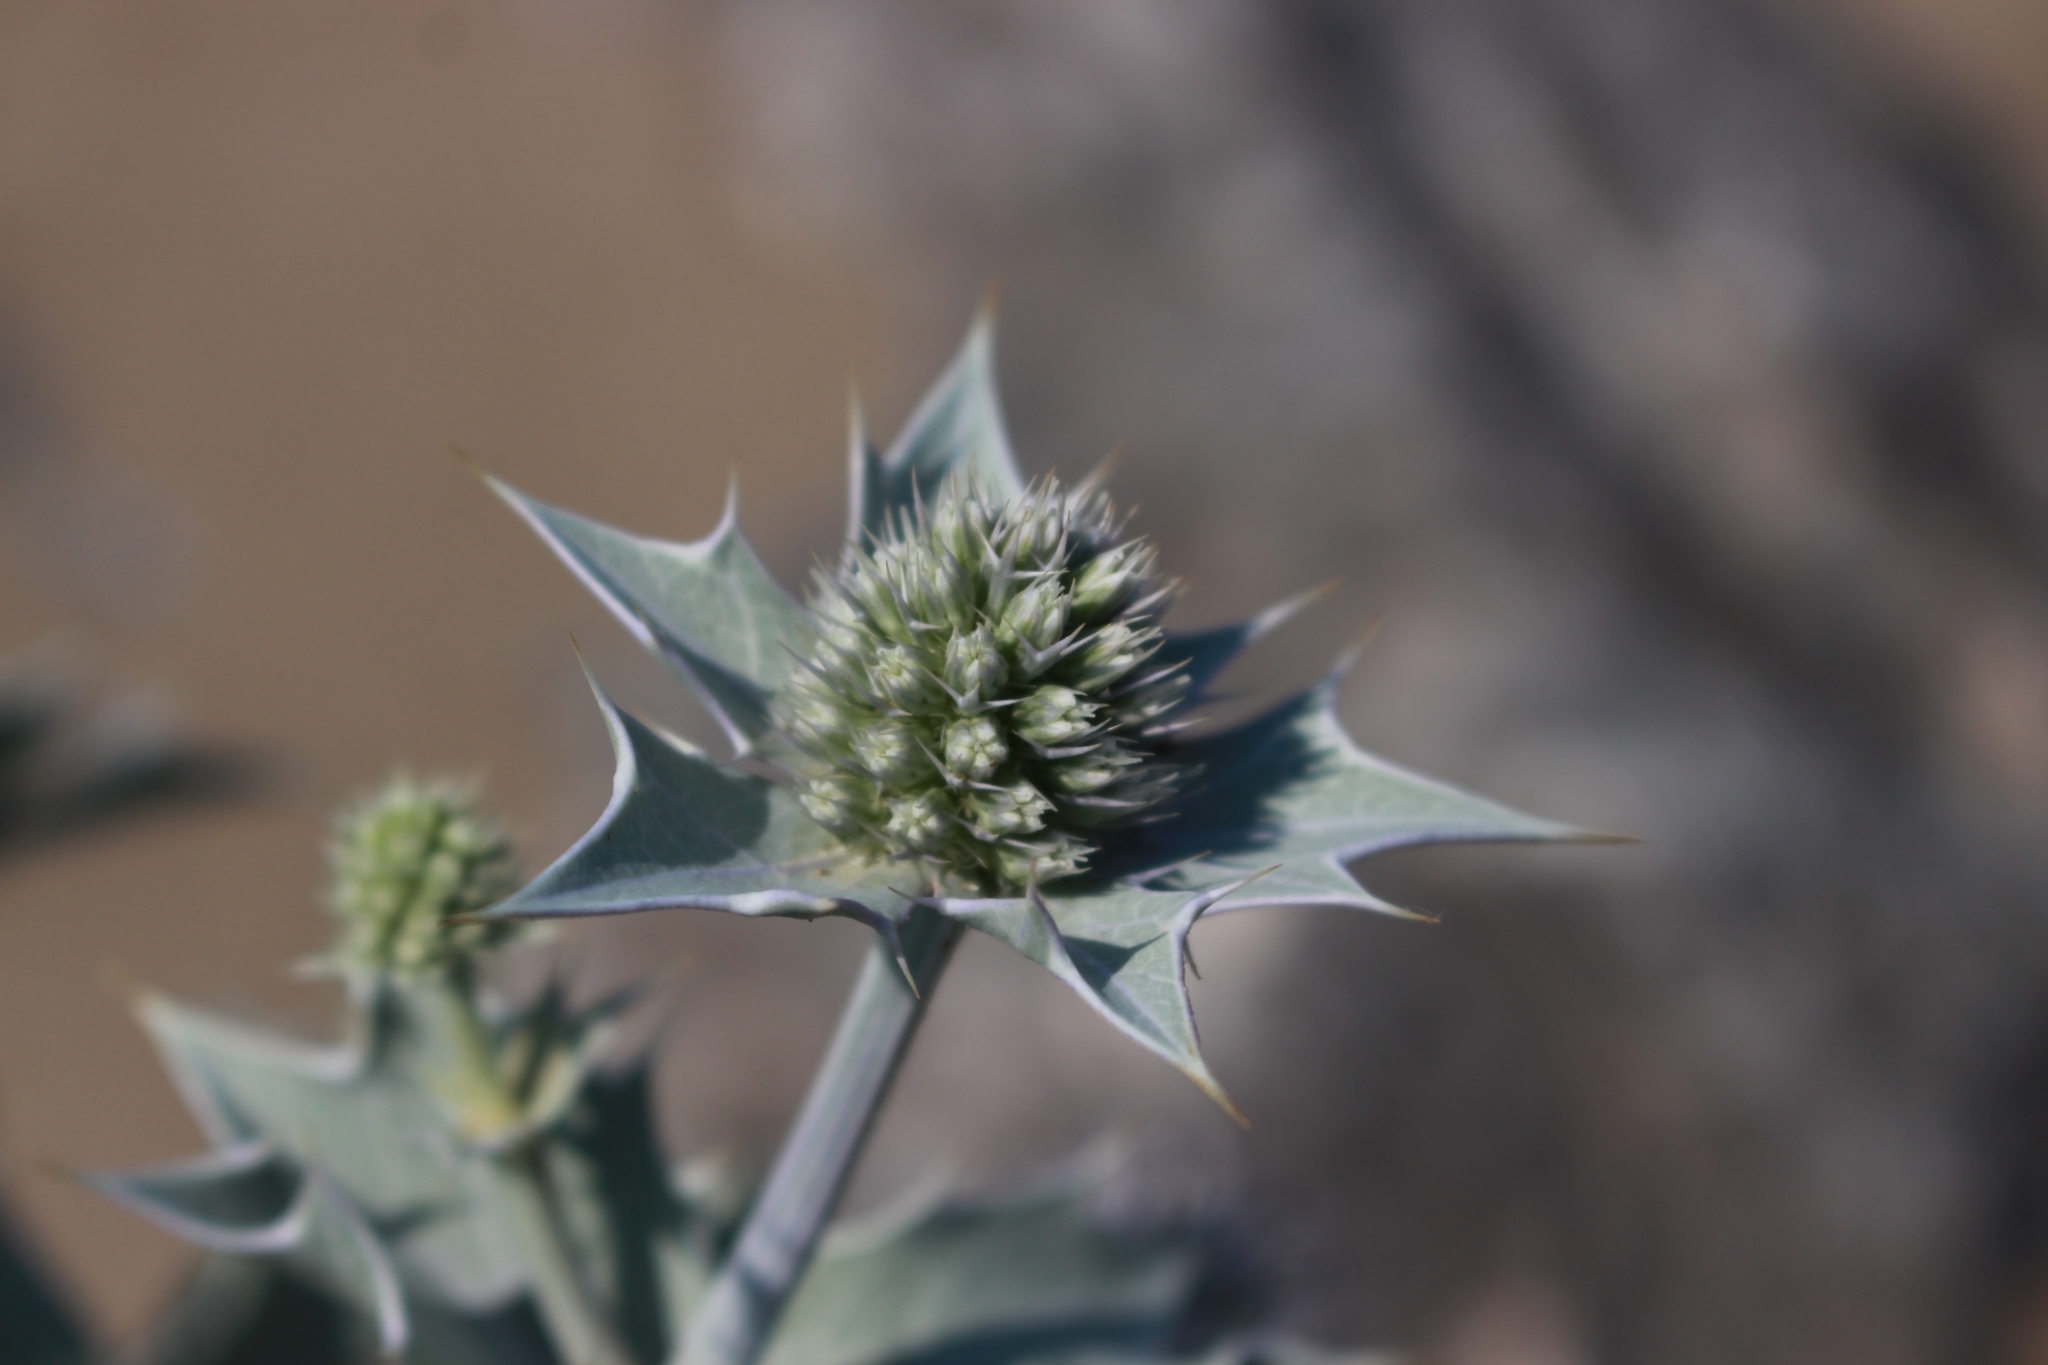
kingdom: Plantae
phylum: Tracheophyta
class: Magnoliopsida
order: Apiales
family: Apiaceae
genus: Eryngium
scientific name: Eryngium maritimum
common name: Sea-holly
